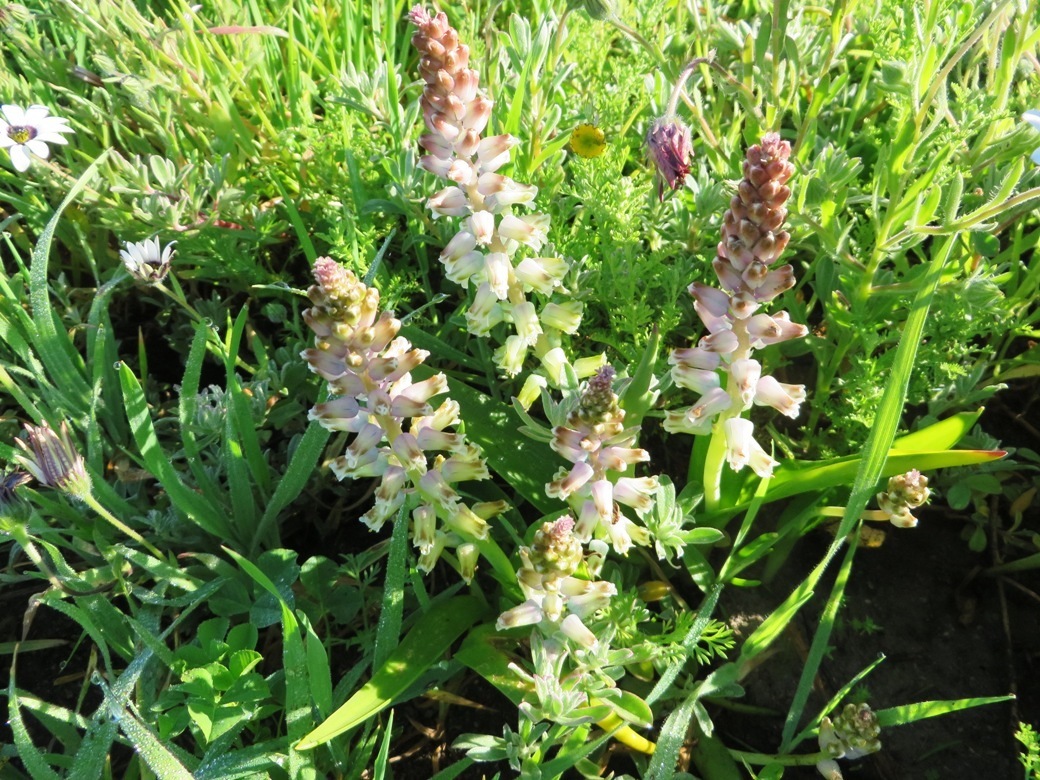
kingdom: Plantae
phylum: Tracheophyta
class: Liliopsida
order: Asparagales
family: Asparagaceae
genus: Lachenalia
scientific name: Lachenalia pallida
